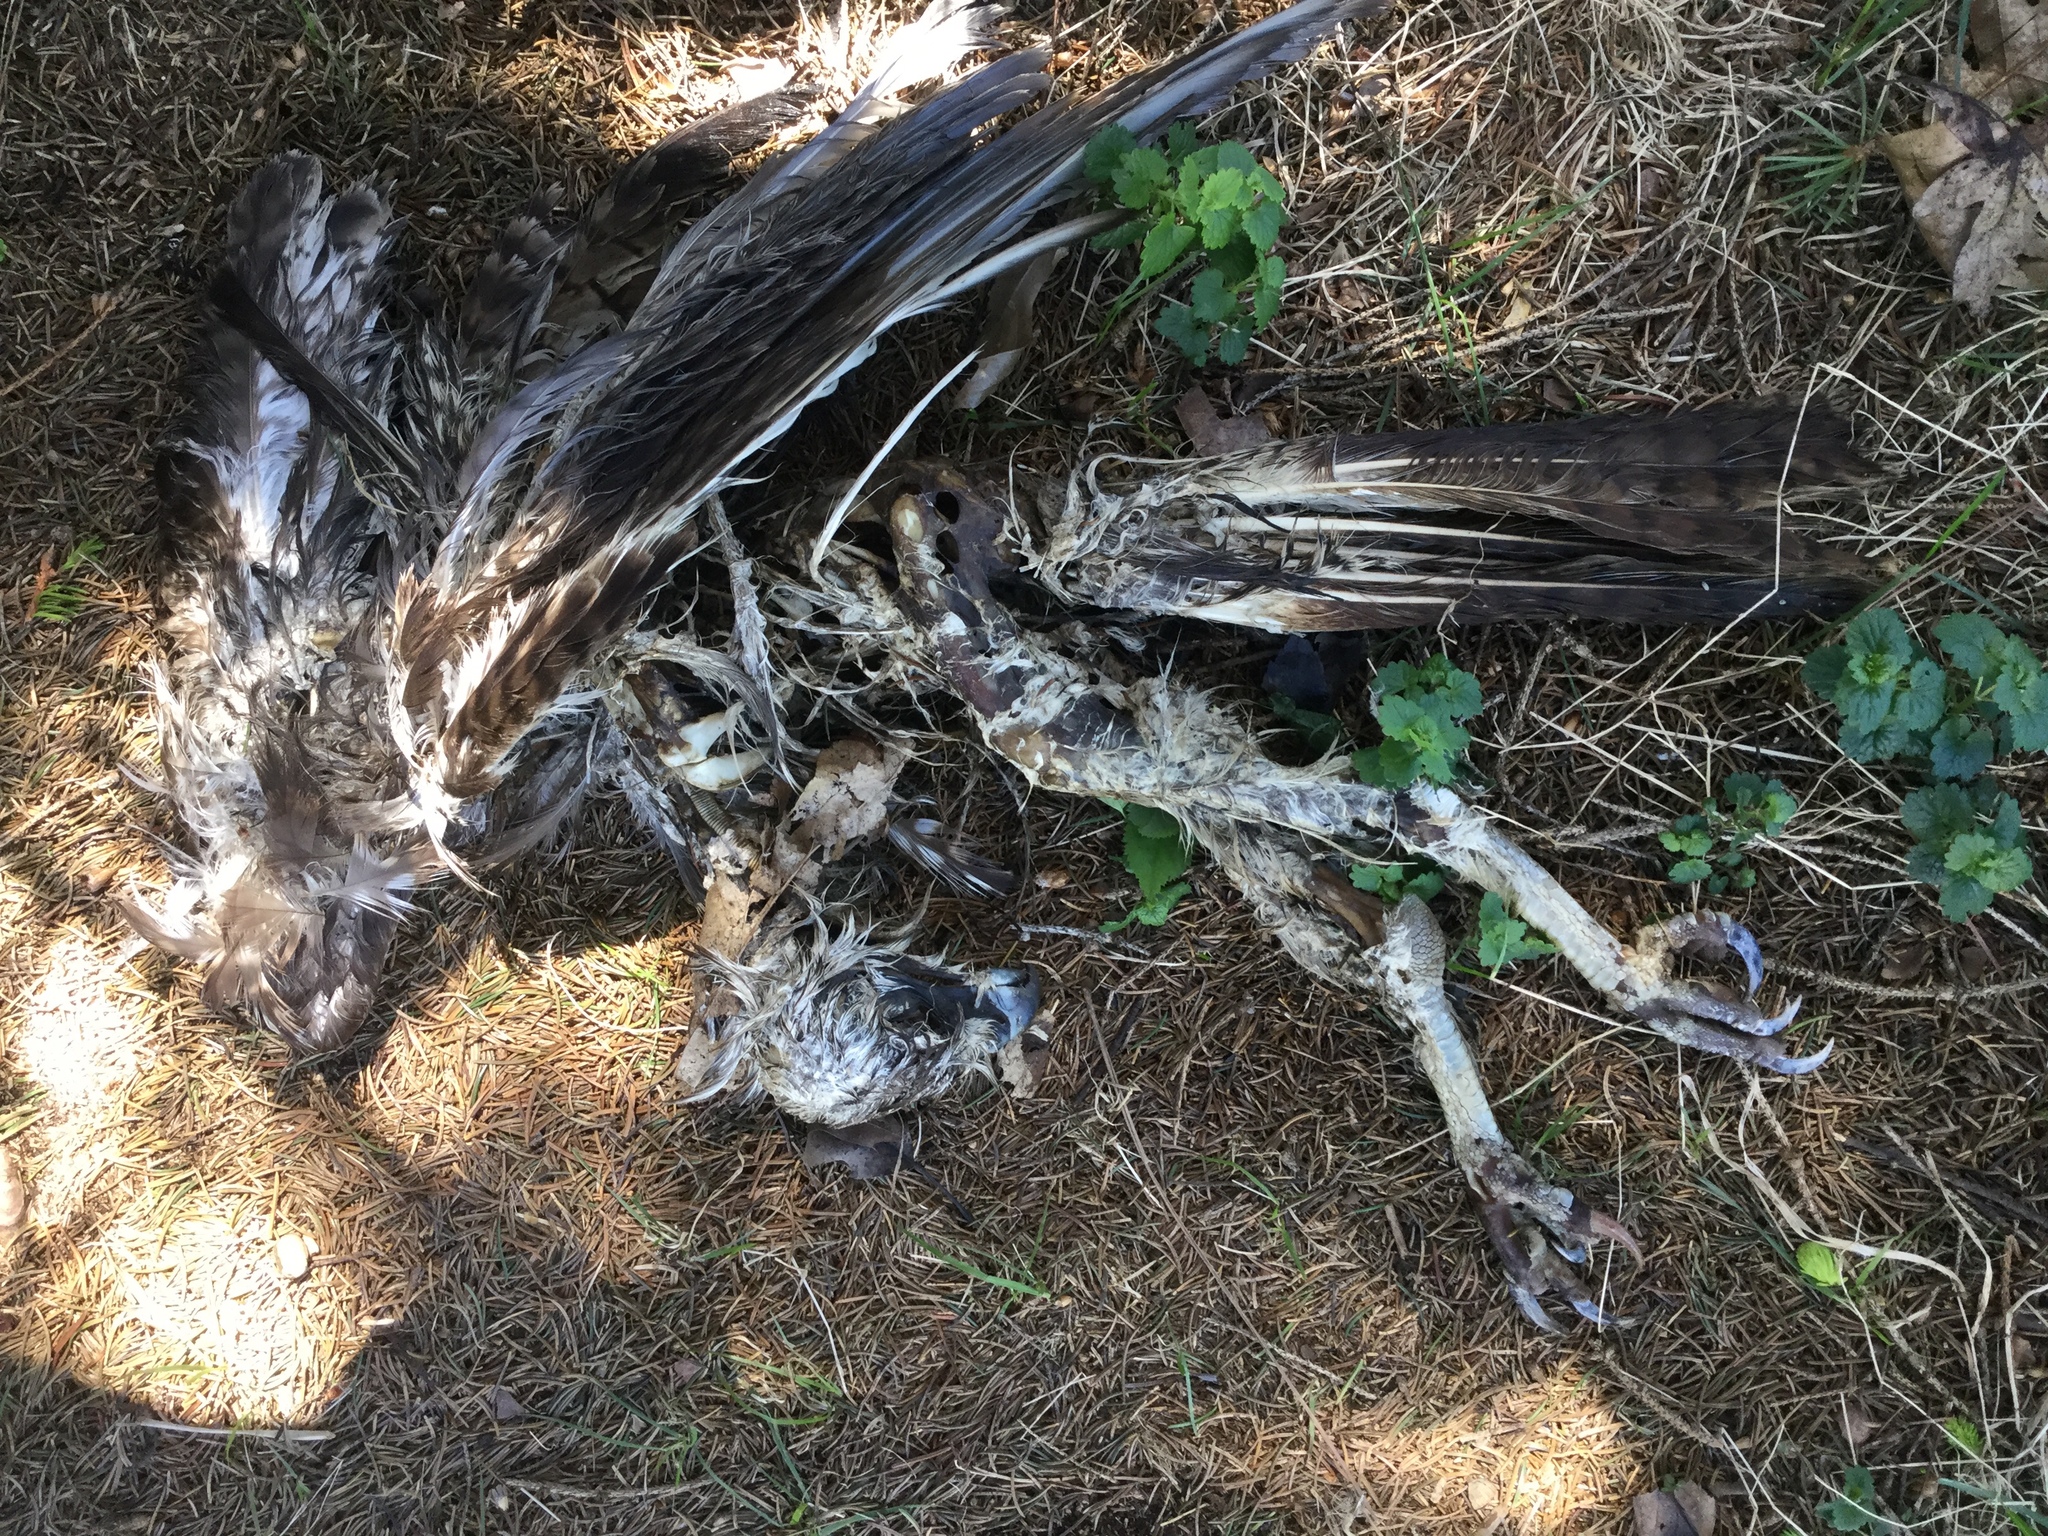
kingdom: Animalia
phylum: Chordata
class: Aves
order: Accipitriformes
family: Accipitridae
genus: Buteo
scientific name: Buteo jamaicensis
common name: Red-tailed hawk
